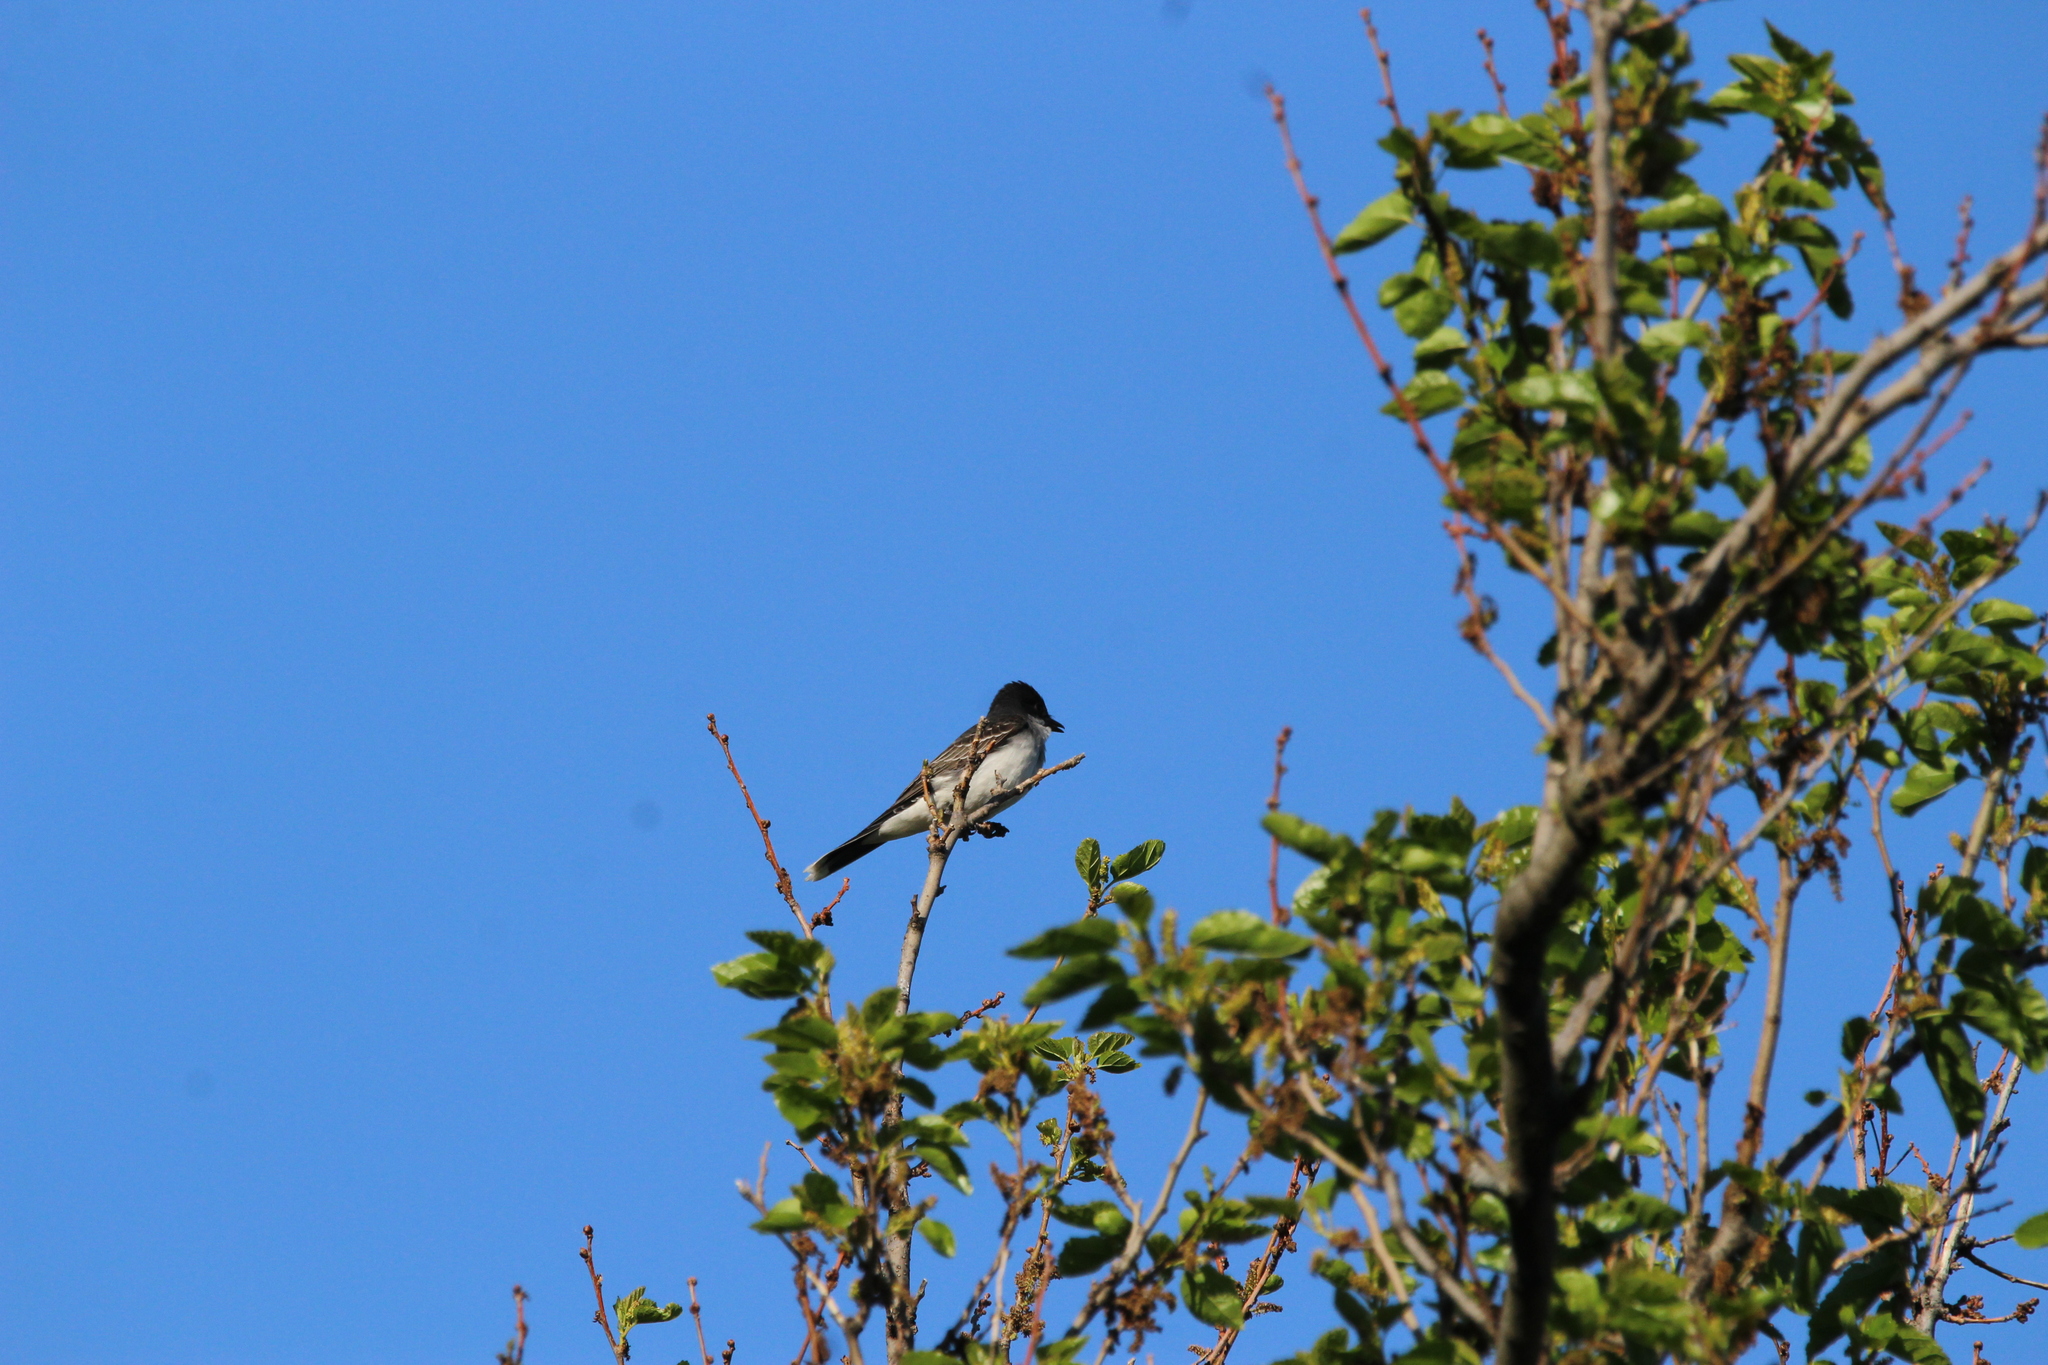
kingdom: Animalia
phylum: Chordata
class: Aves
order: Passeriformes
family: Tyrannidae
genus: Tyrannus
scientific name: Tyrannus tyrannus
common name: Eastern kingbird
